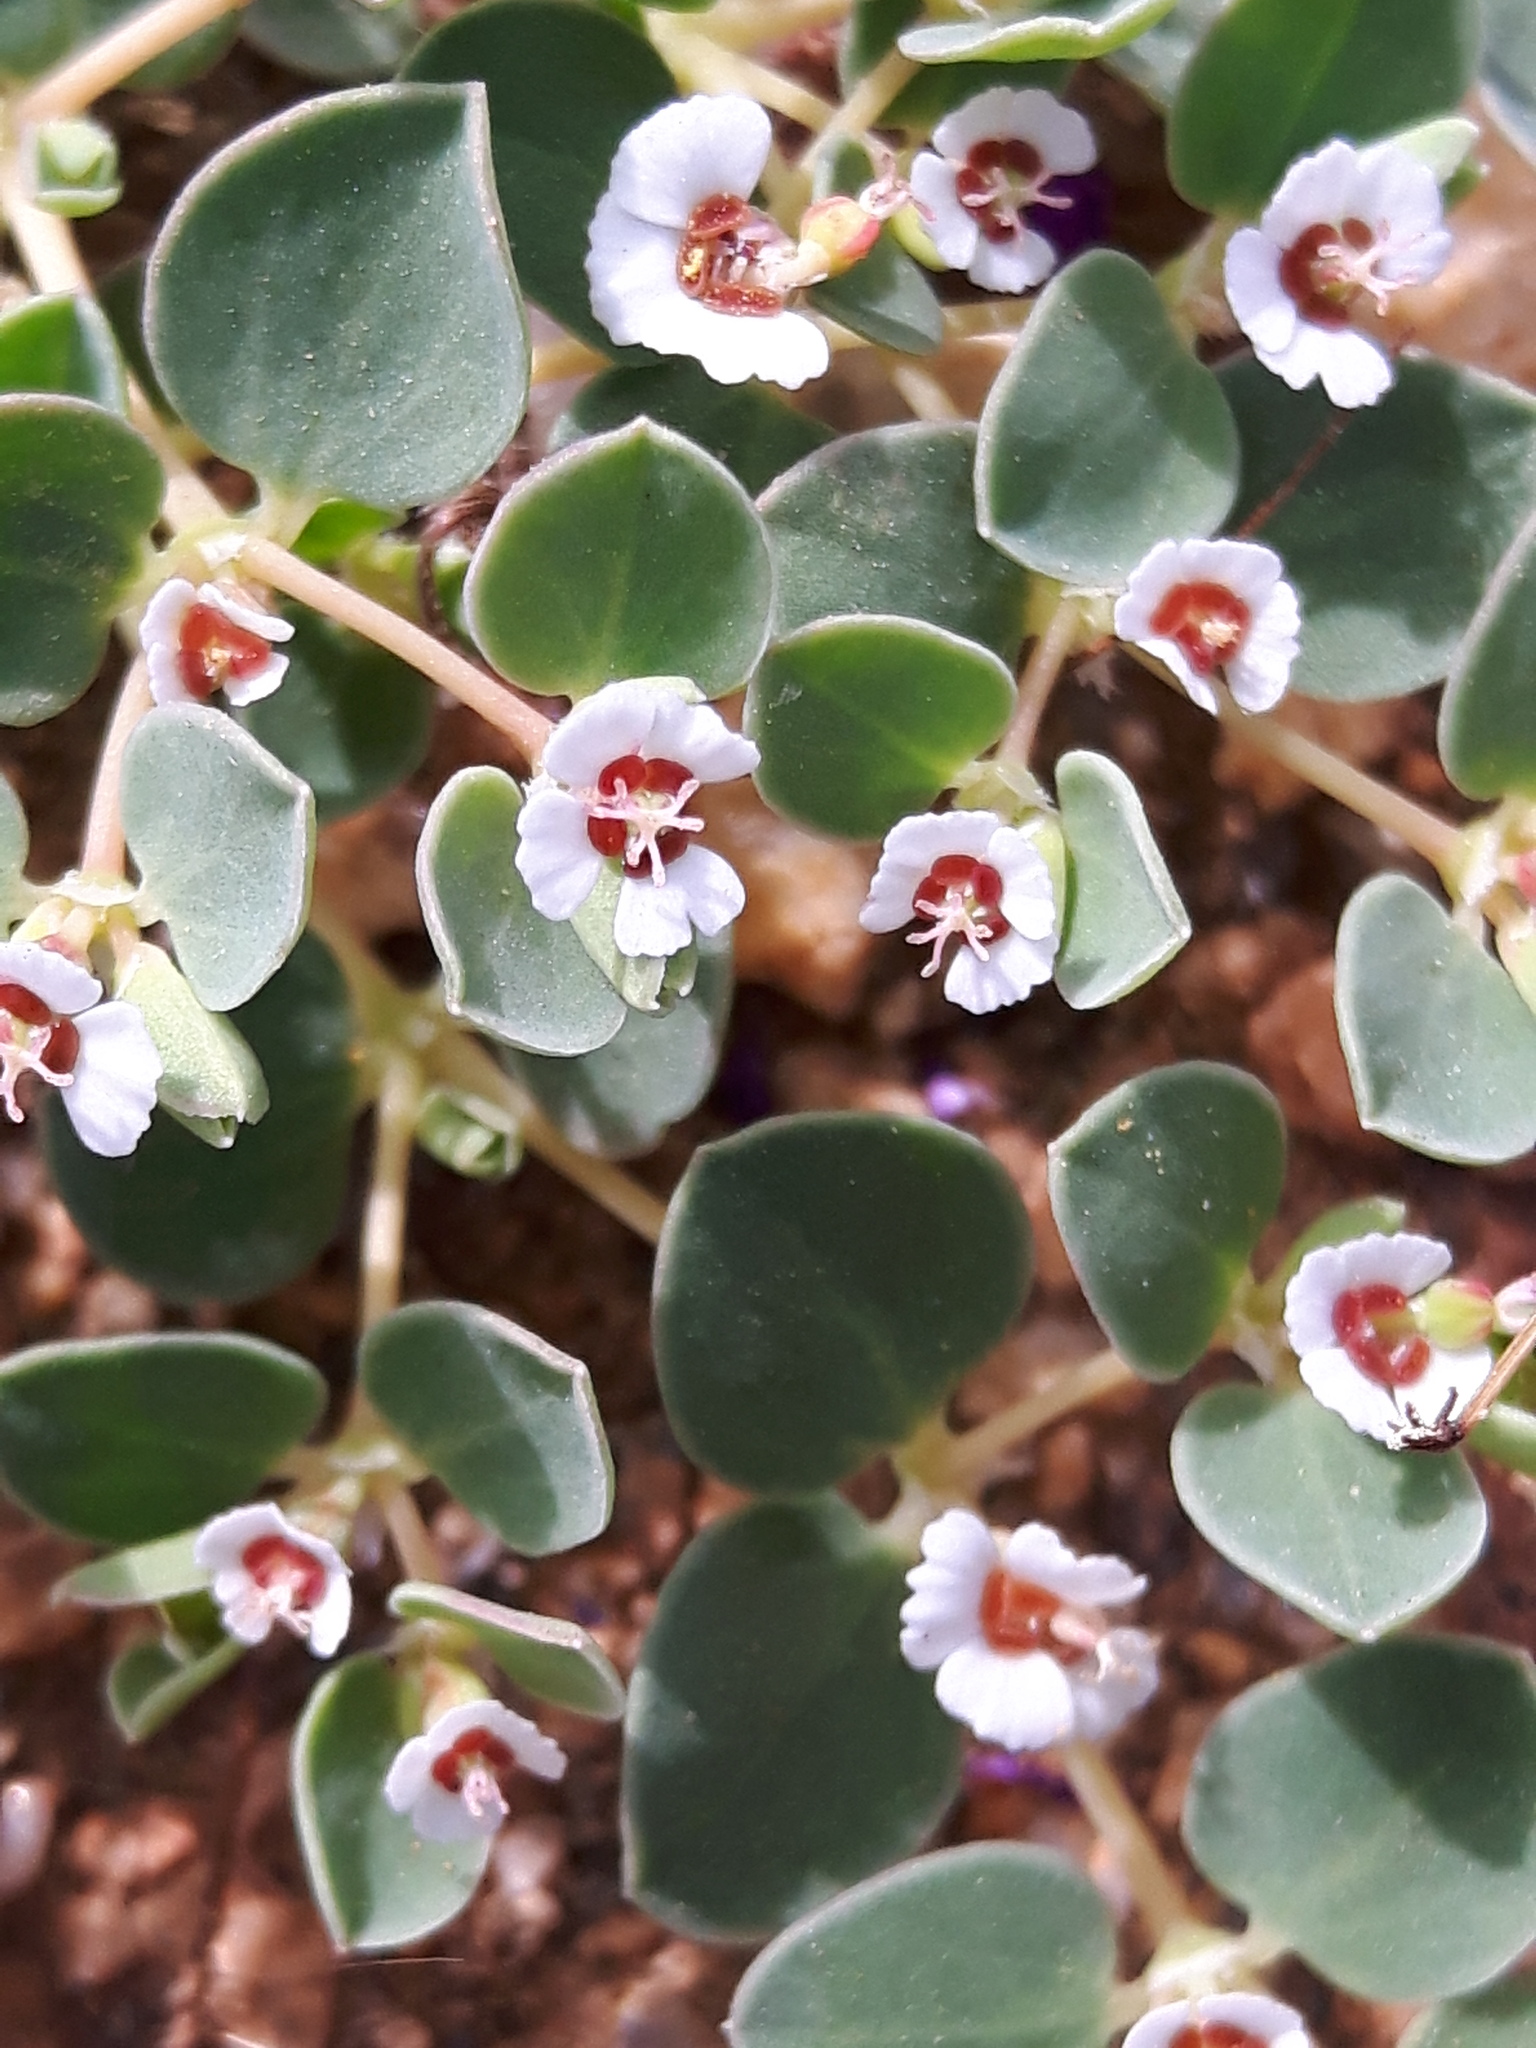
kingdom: Plantae
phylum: Tracheophyta
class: Magnoliopsida
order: Malpighiales
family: Euphorbiaceae
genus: Euphorbia
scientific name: Euphorbia albomarginata
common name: Whitemargin sandmat
